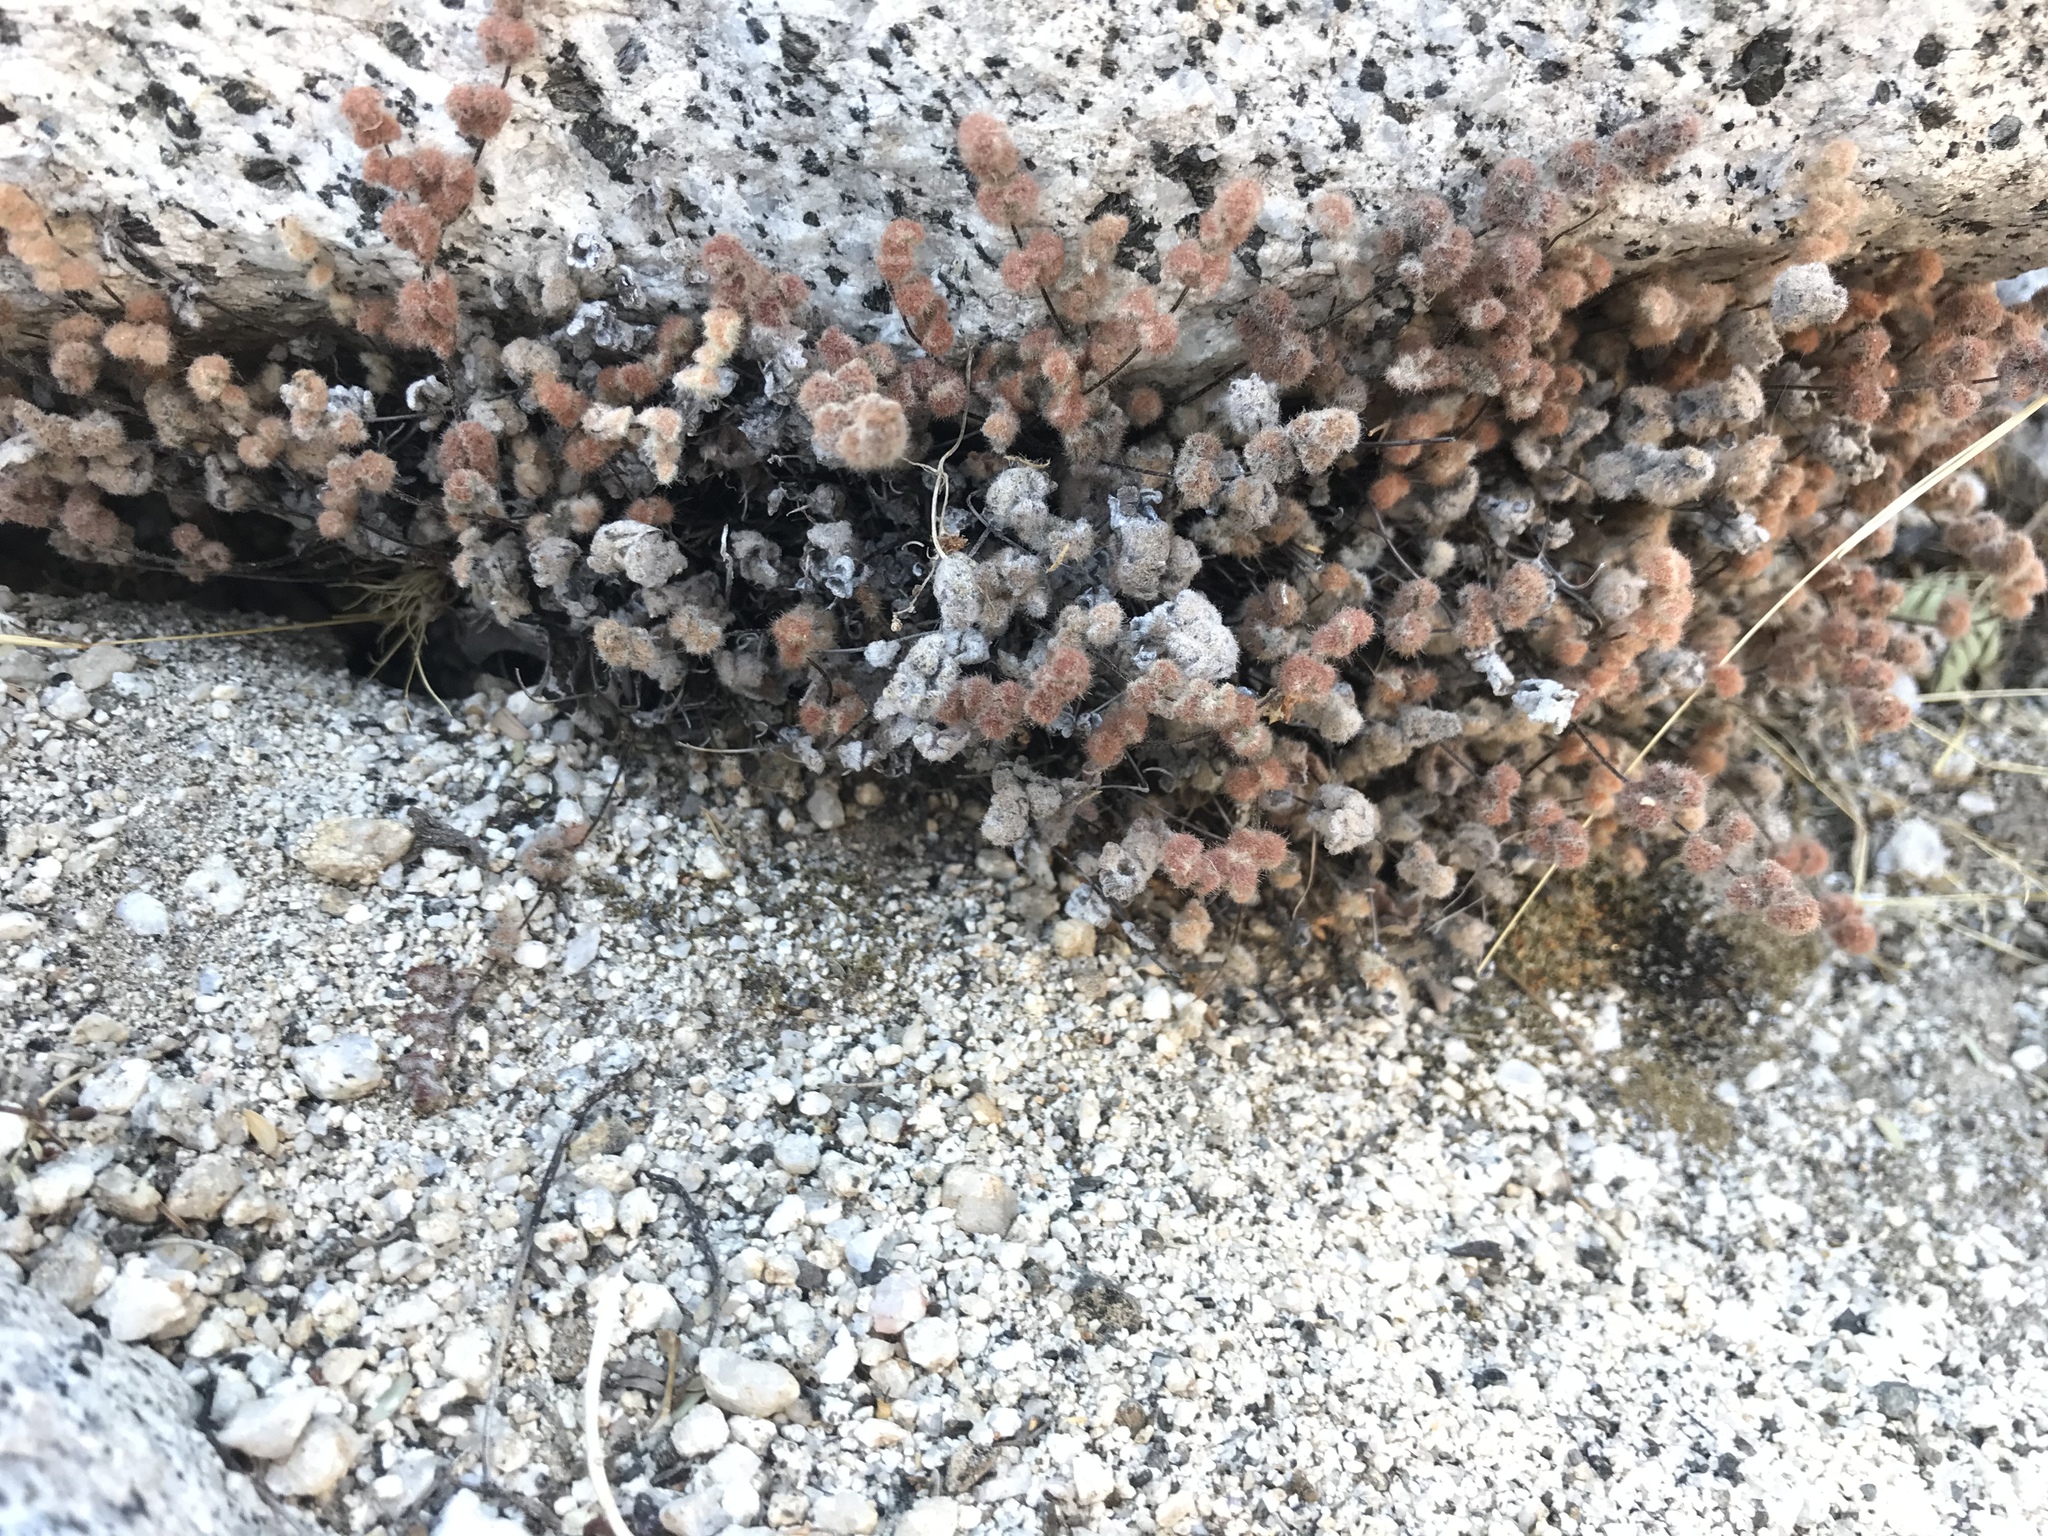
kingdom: Plantae
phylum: Tracheophyta
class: Polypodiopsida
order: Polypodiales
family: Pteridaceae
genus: Myriopteris
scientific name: Myriopteris parryi
